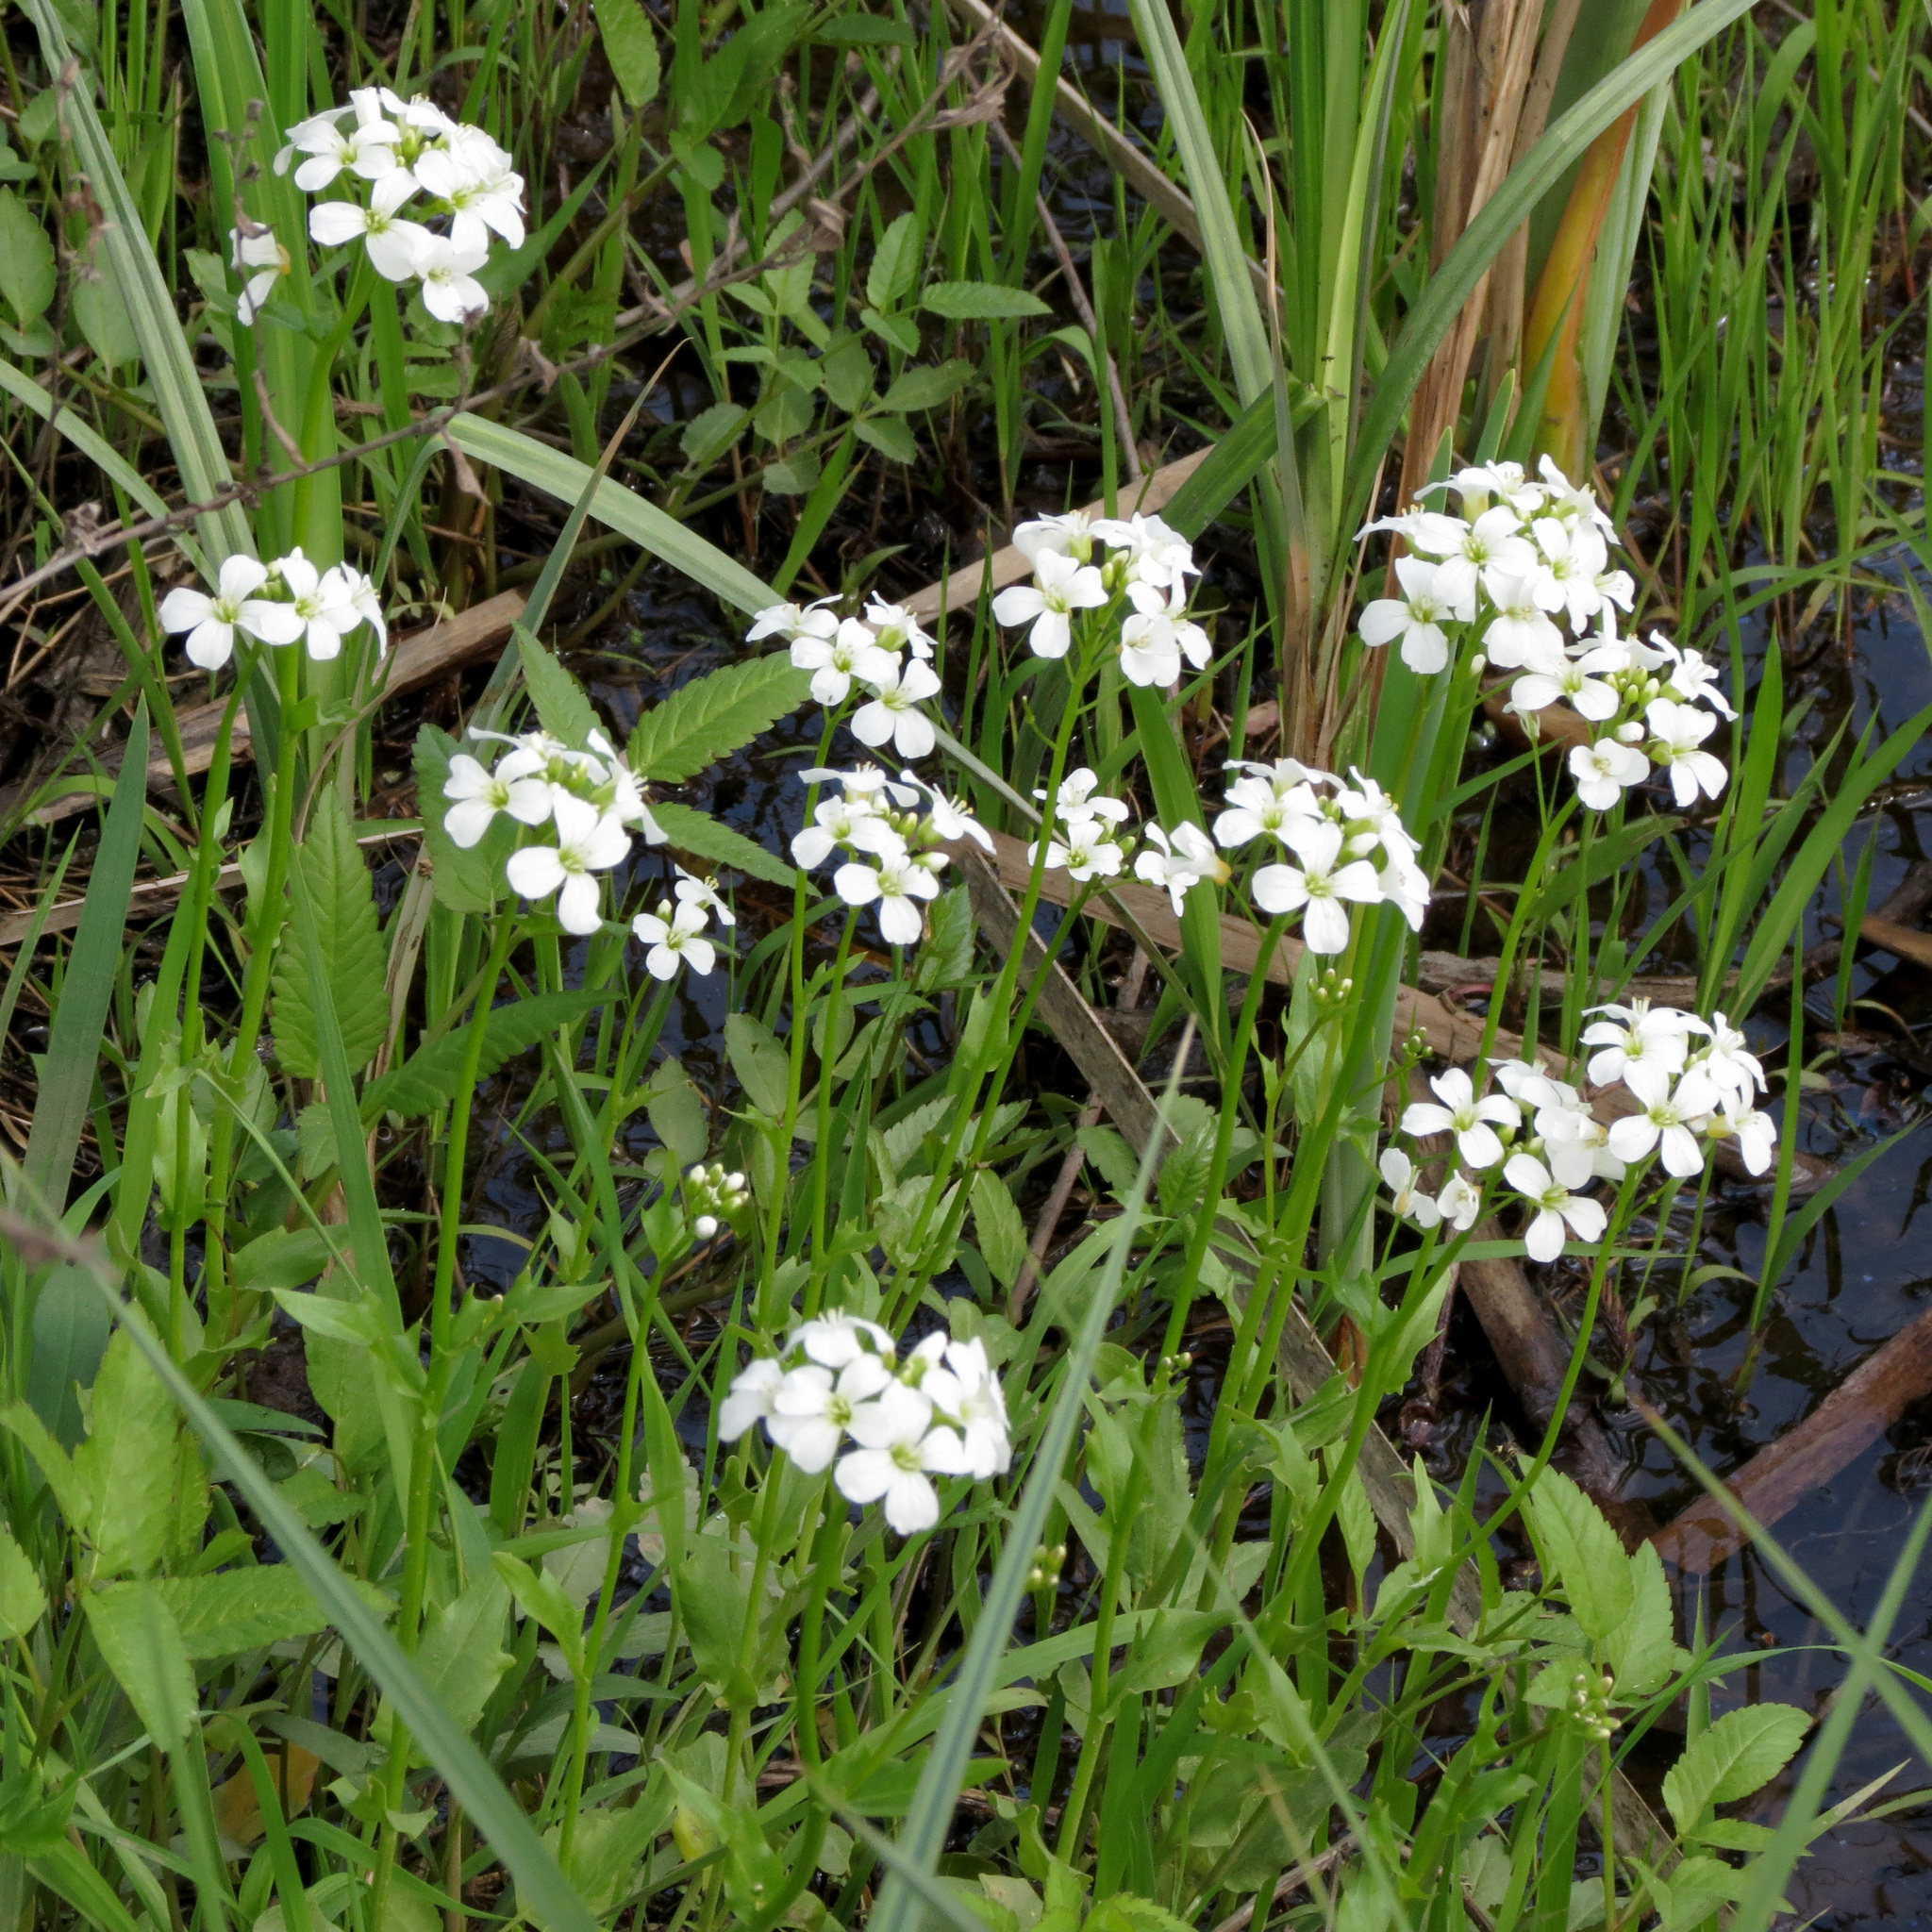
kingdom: Plantae
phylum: Tracheophyta
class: Magnoliopsida
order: Brassicales
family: Brassicaceae
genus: Cardamine
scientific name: Cardamine bulbosa
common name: Spring cress
